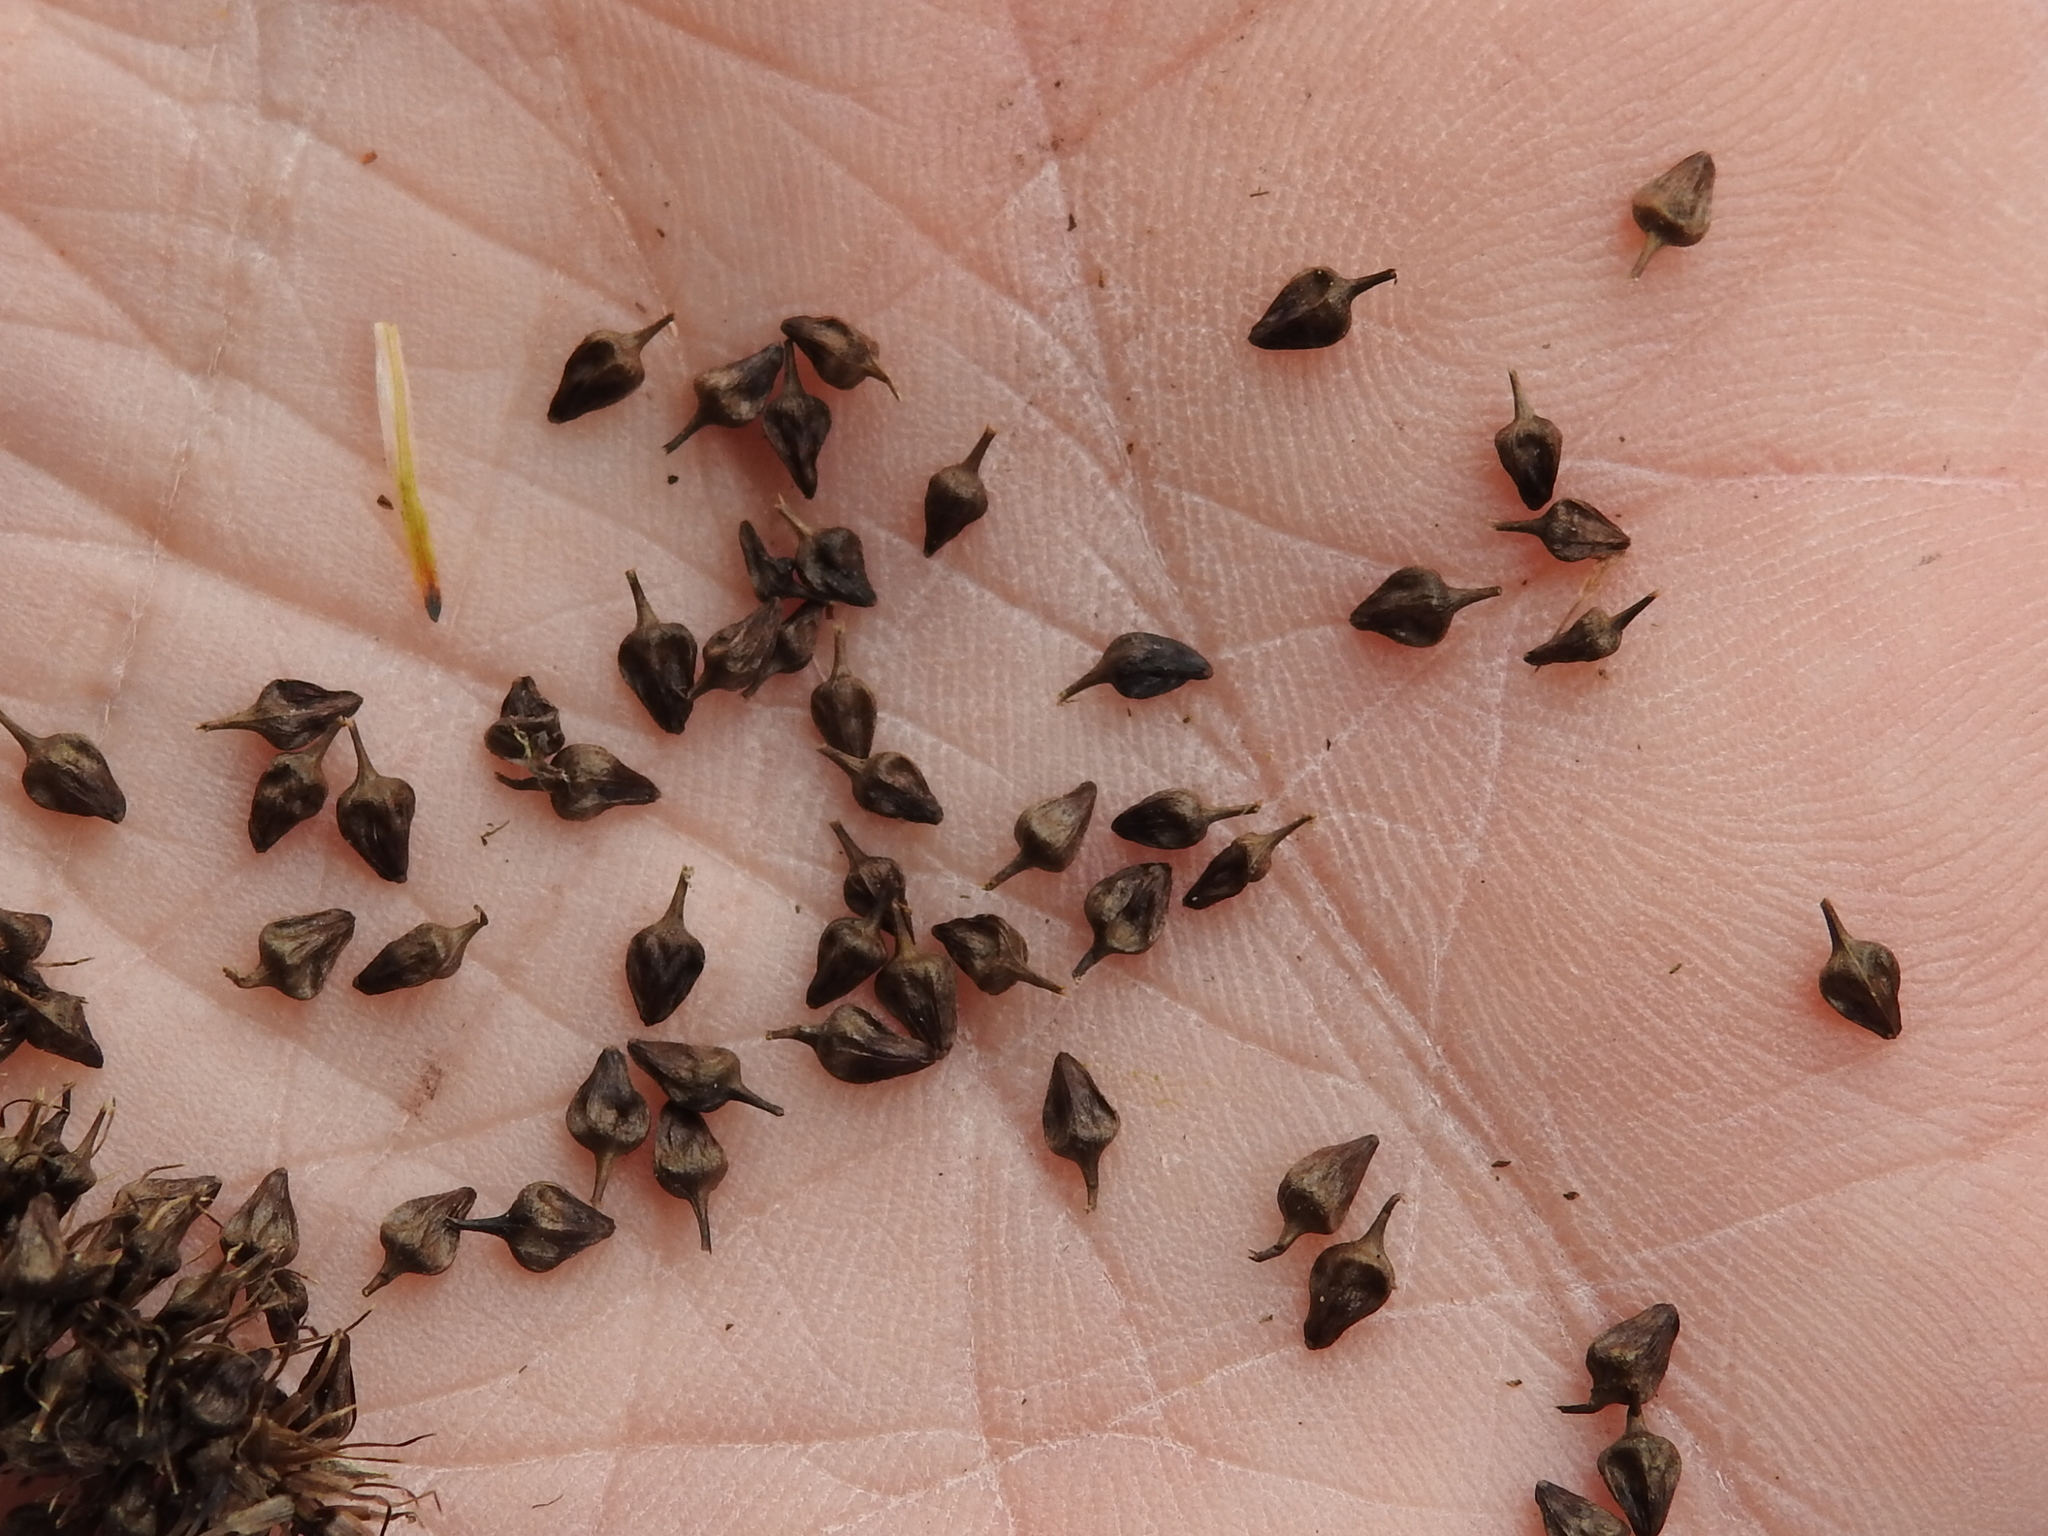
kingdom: Plantae
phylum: Tracheophyta
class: Liliopsida
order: Poales
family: Cyperaceae
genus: Carex
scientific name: Carex aureolensis
